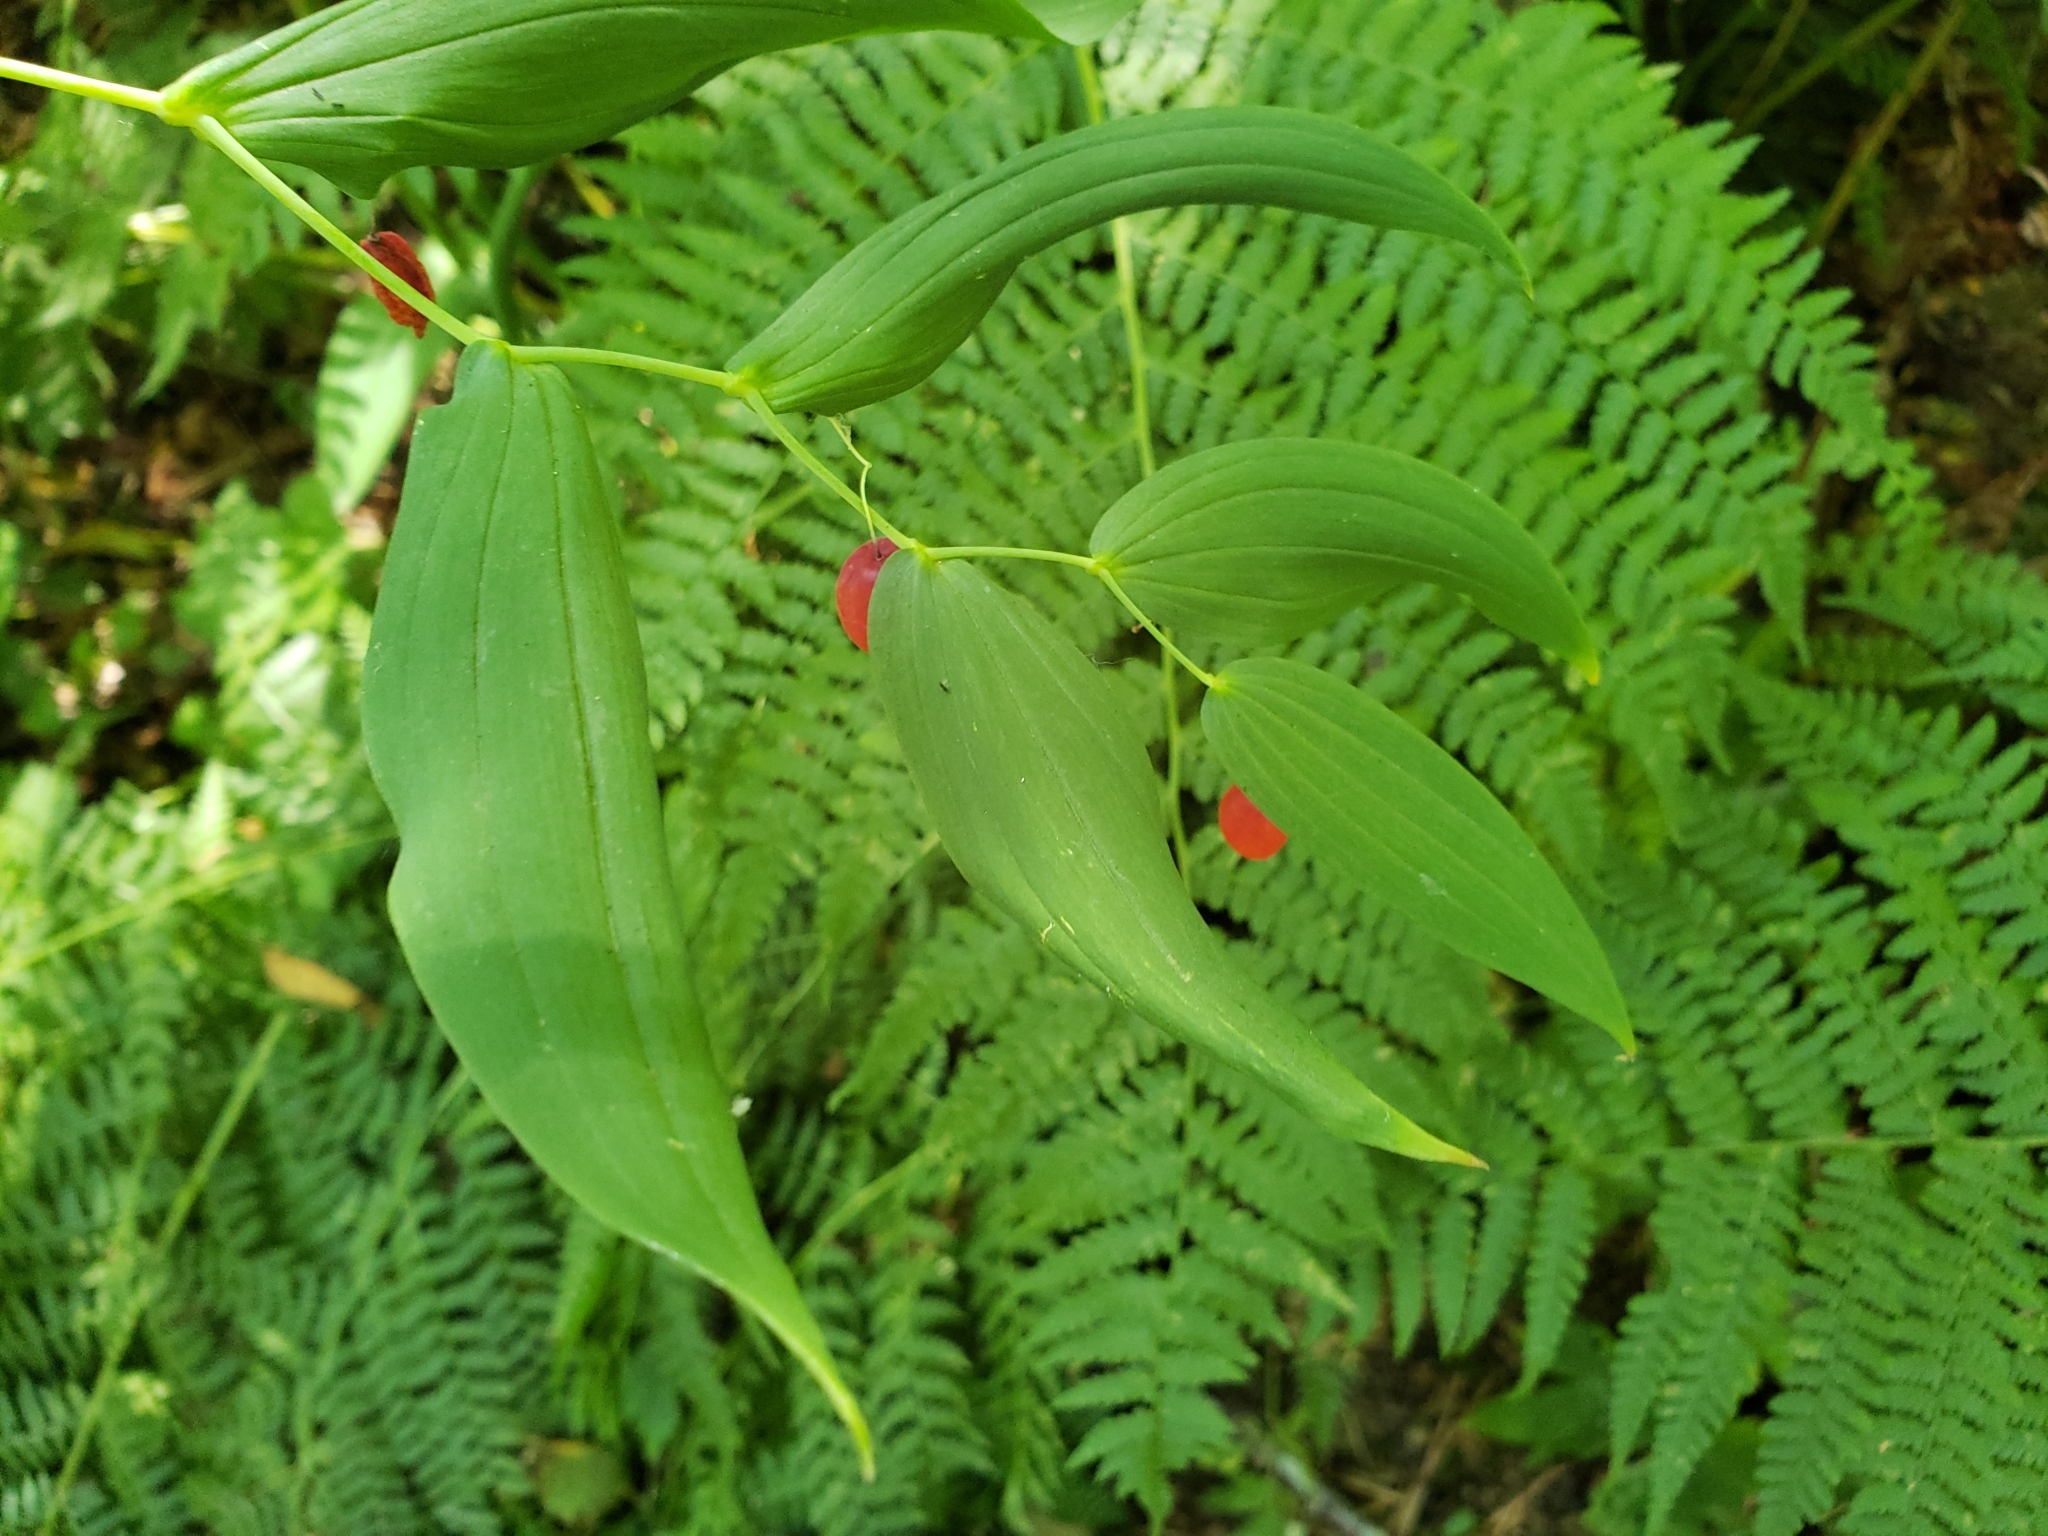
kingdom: Plantae
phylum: Tracheophyta
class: Liliopsida
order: Liliales
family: Liliaceae
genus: Streptopus
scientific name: Streptopus amplexifolius
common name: Clasp twisted stalk
